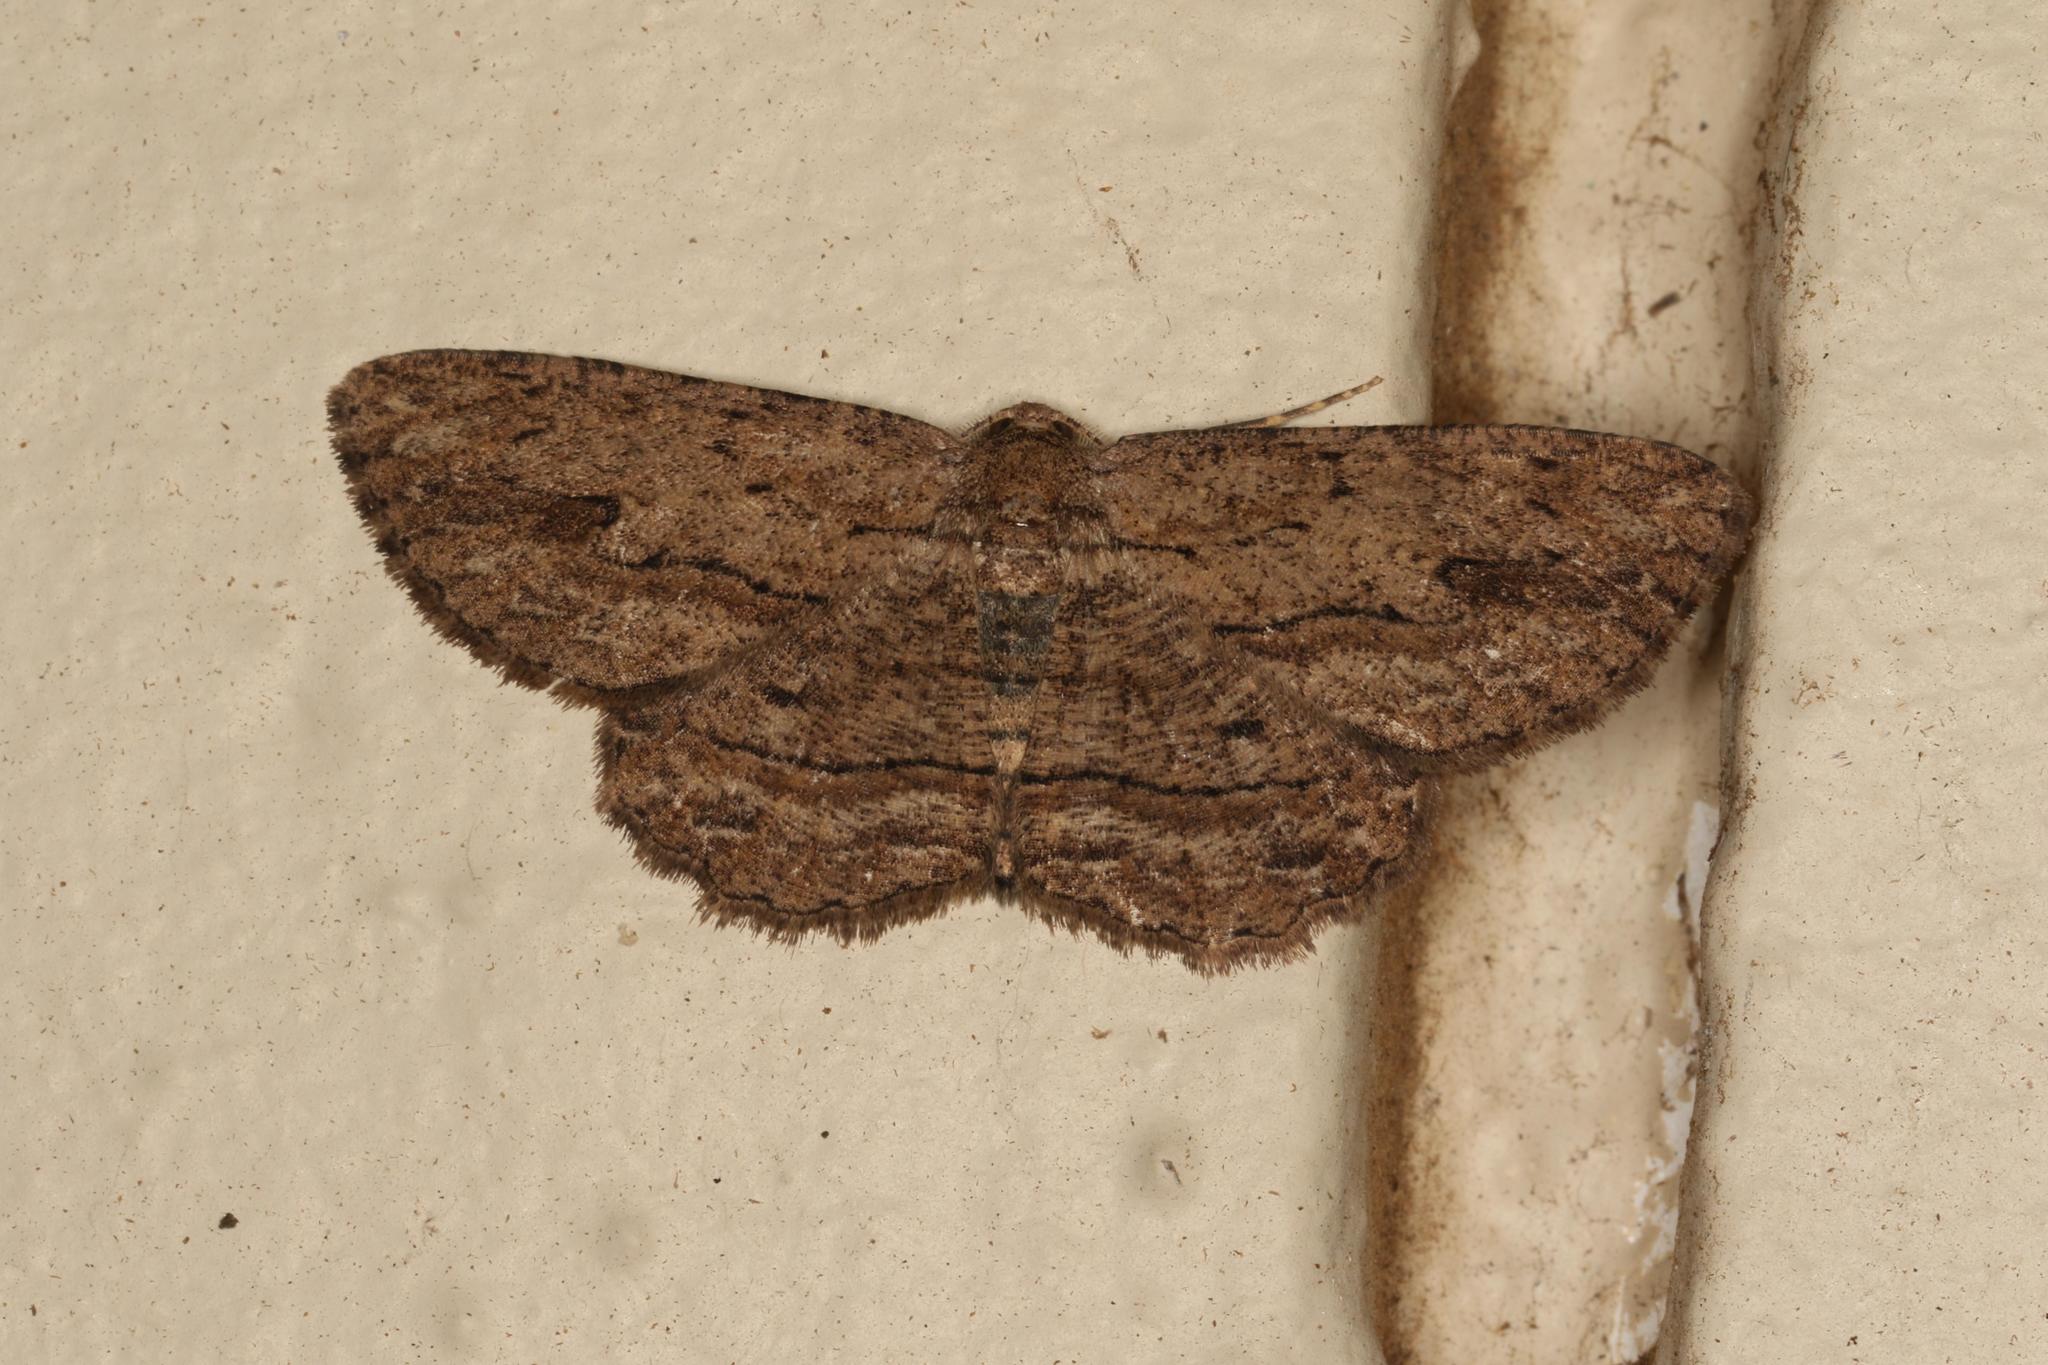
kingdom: Animalia
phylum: Arthropoda
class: Insecta
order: Lepidoptera
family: Geometridae
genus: Ectropis
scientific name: Ectropis excursaria
